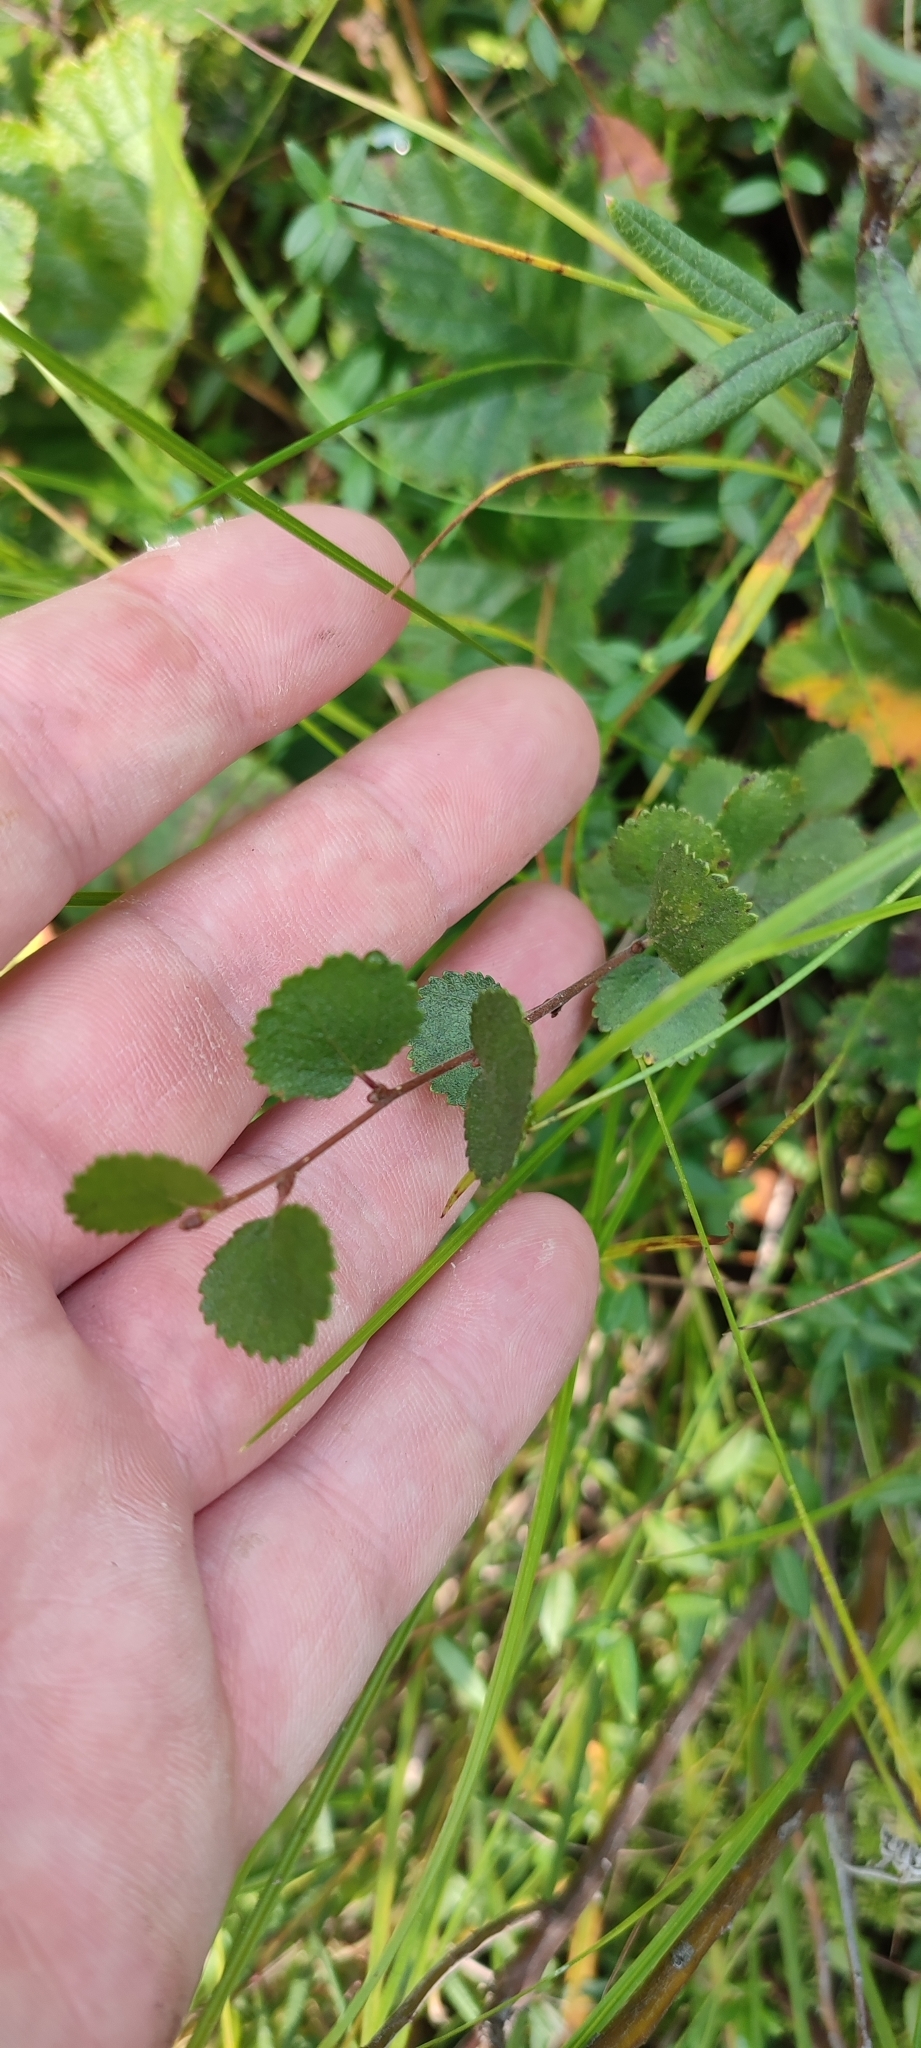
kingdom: Plantae
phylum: Tracheophyta
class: Magnoliopsida
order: Fagales
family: Betulaceae
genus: Betula
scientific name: Betula nana
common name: Arctic dwarf birch
